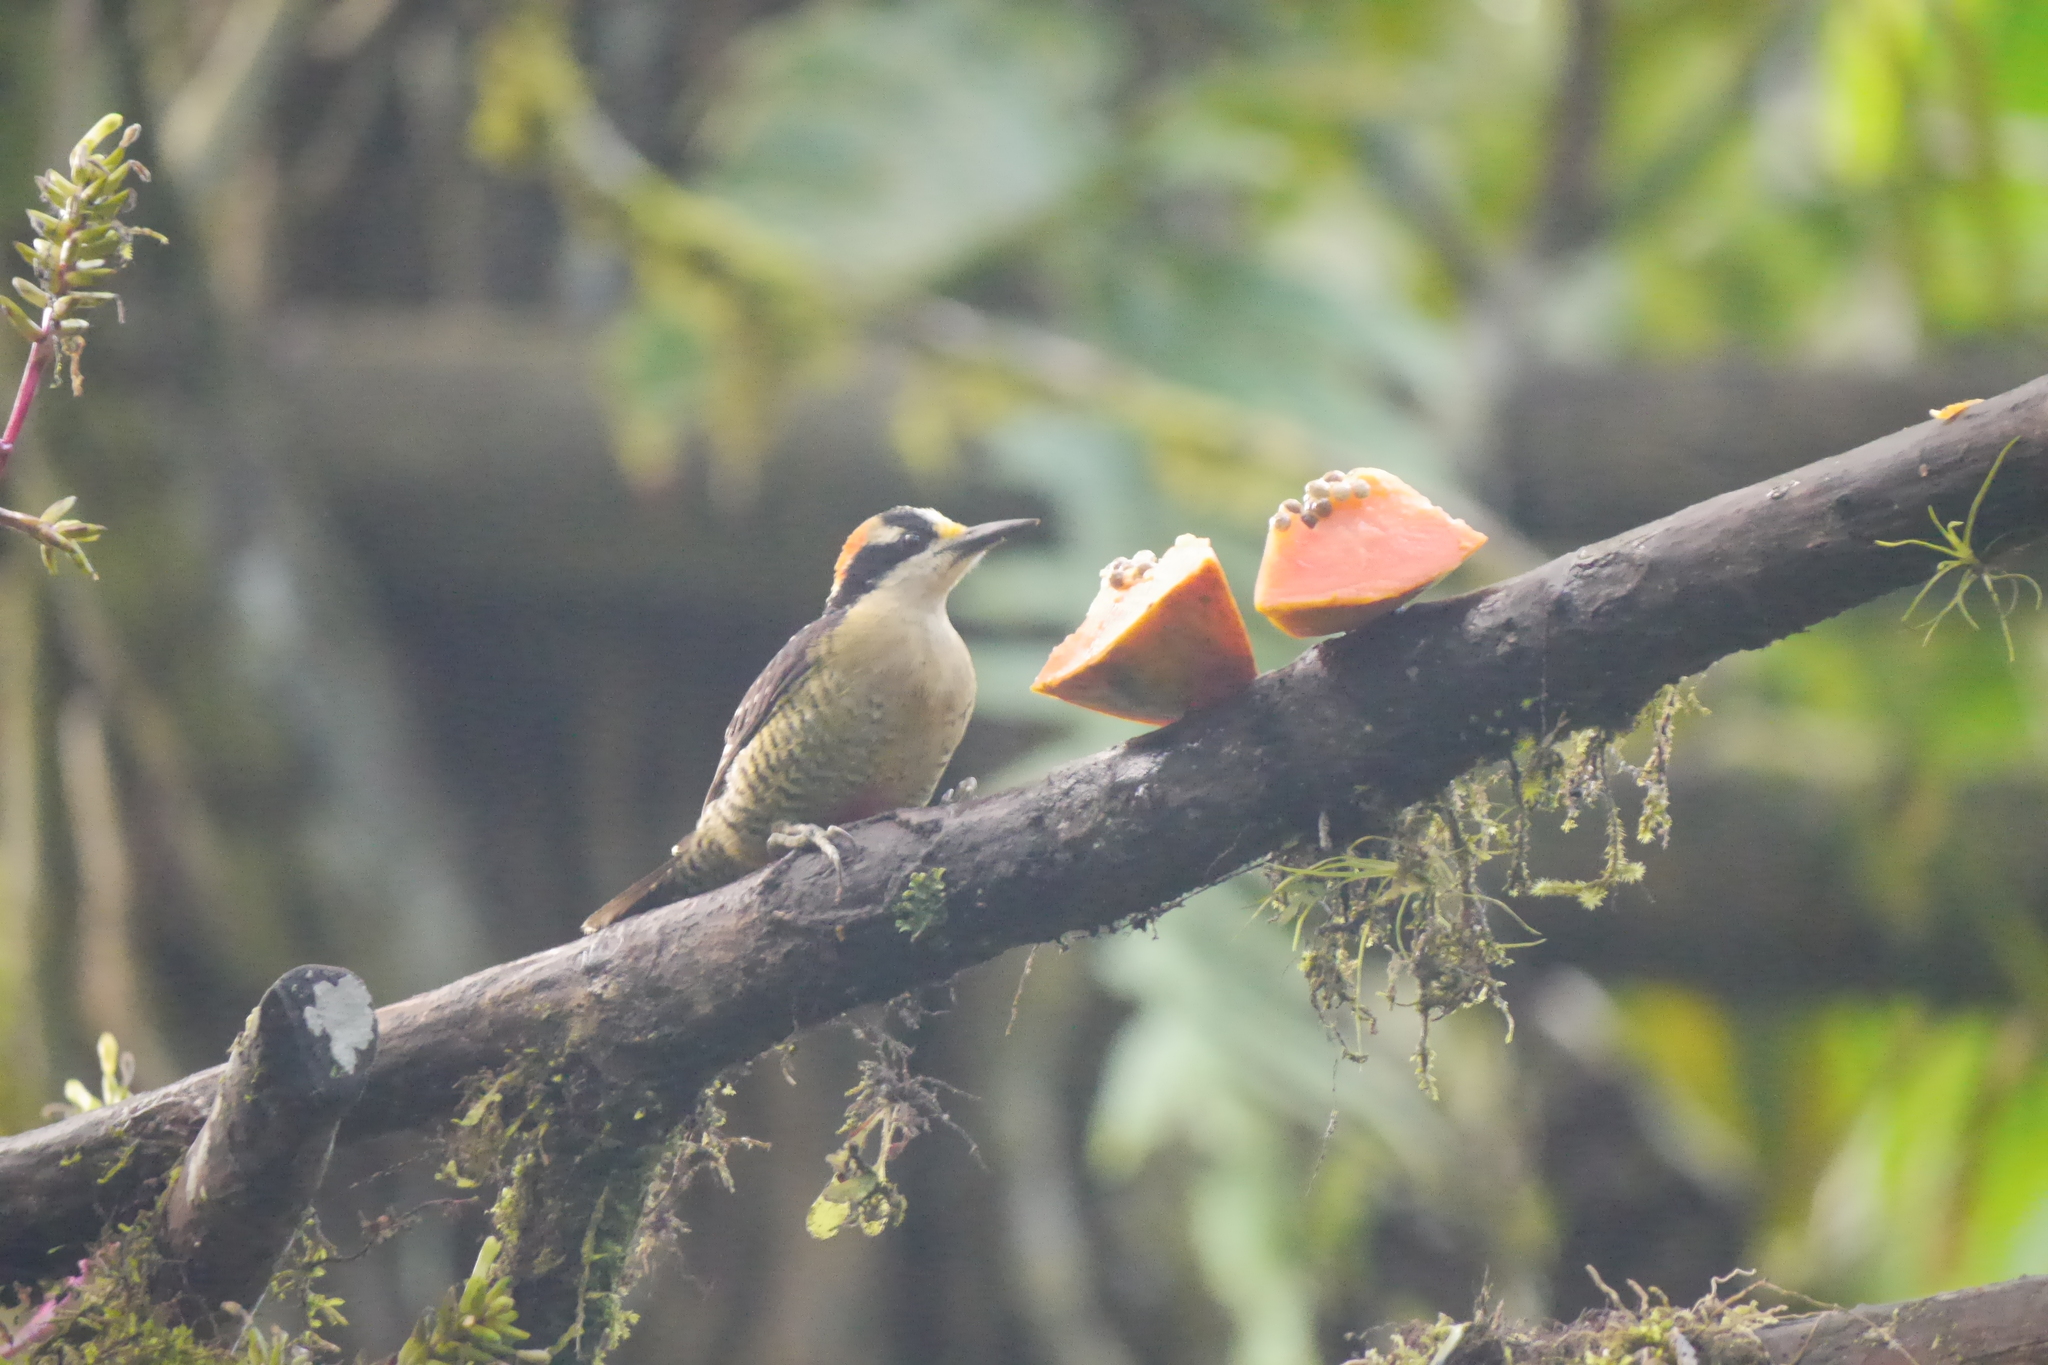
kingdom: Animalia
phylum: Chordata
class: Aves
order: Piciformes
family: Picidae
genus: Melanerpes
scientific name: Melanerpes pucherani
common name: Black-cheeked woodpecker
